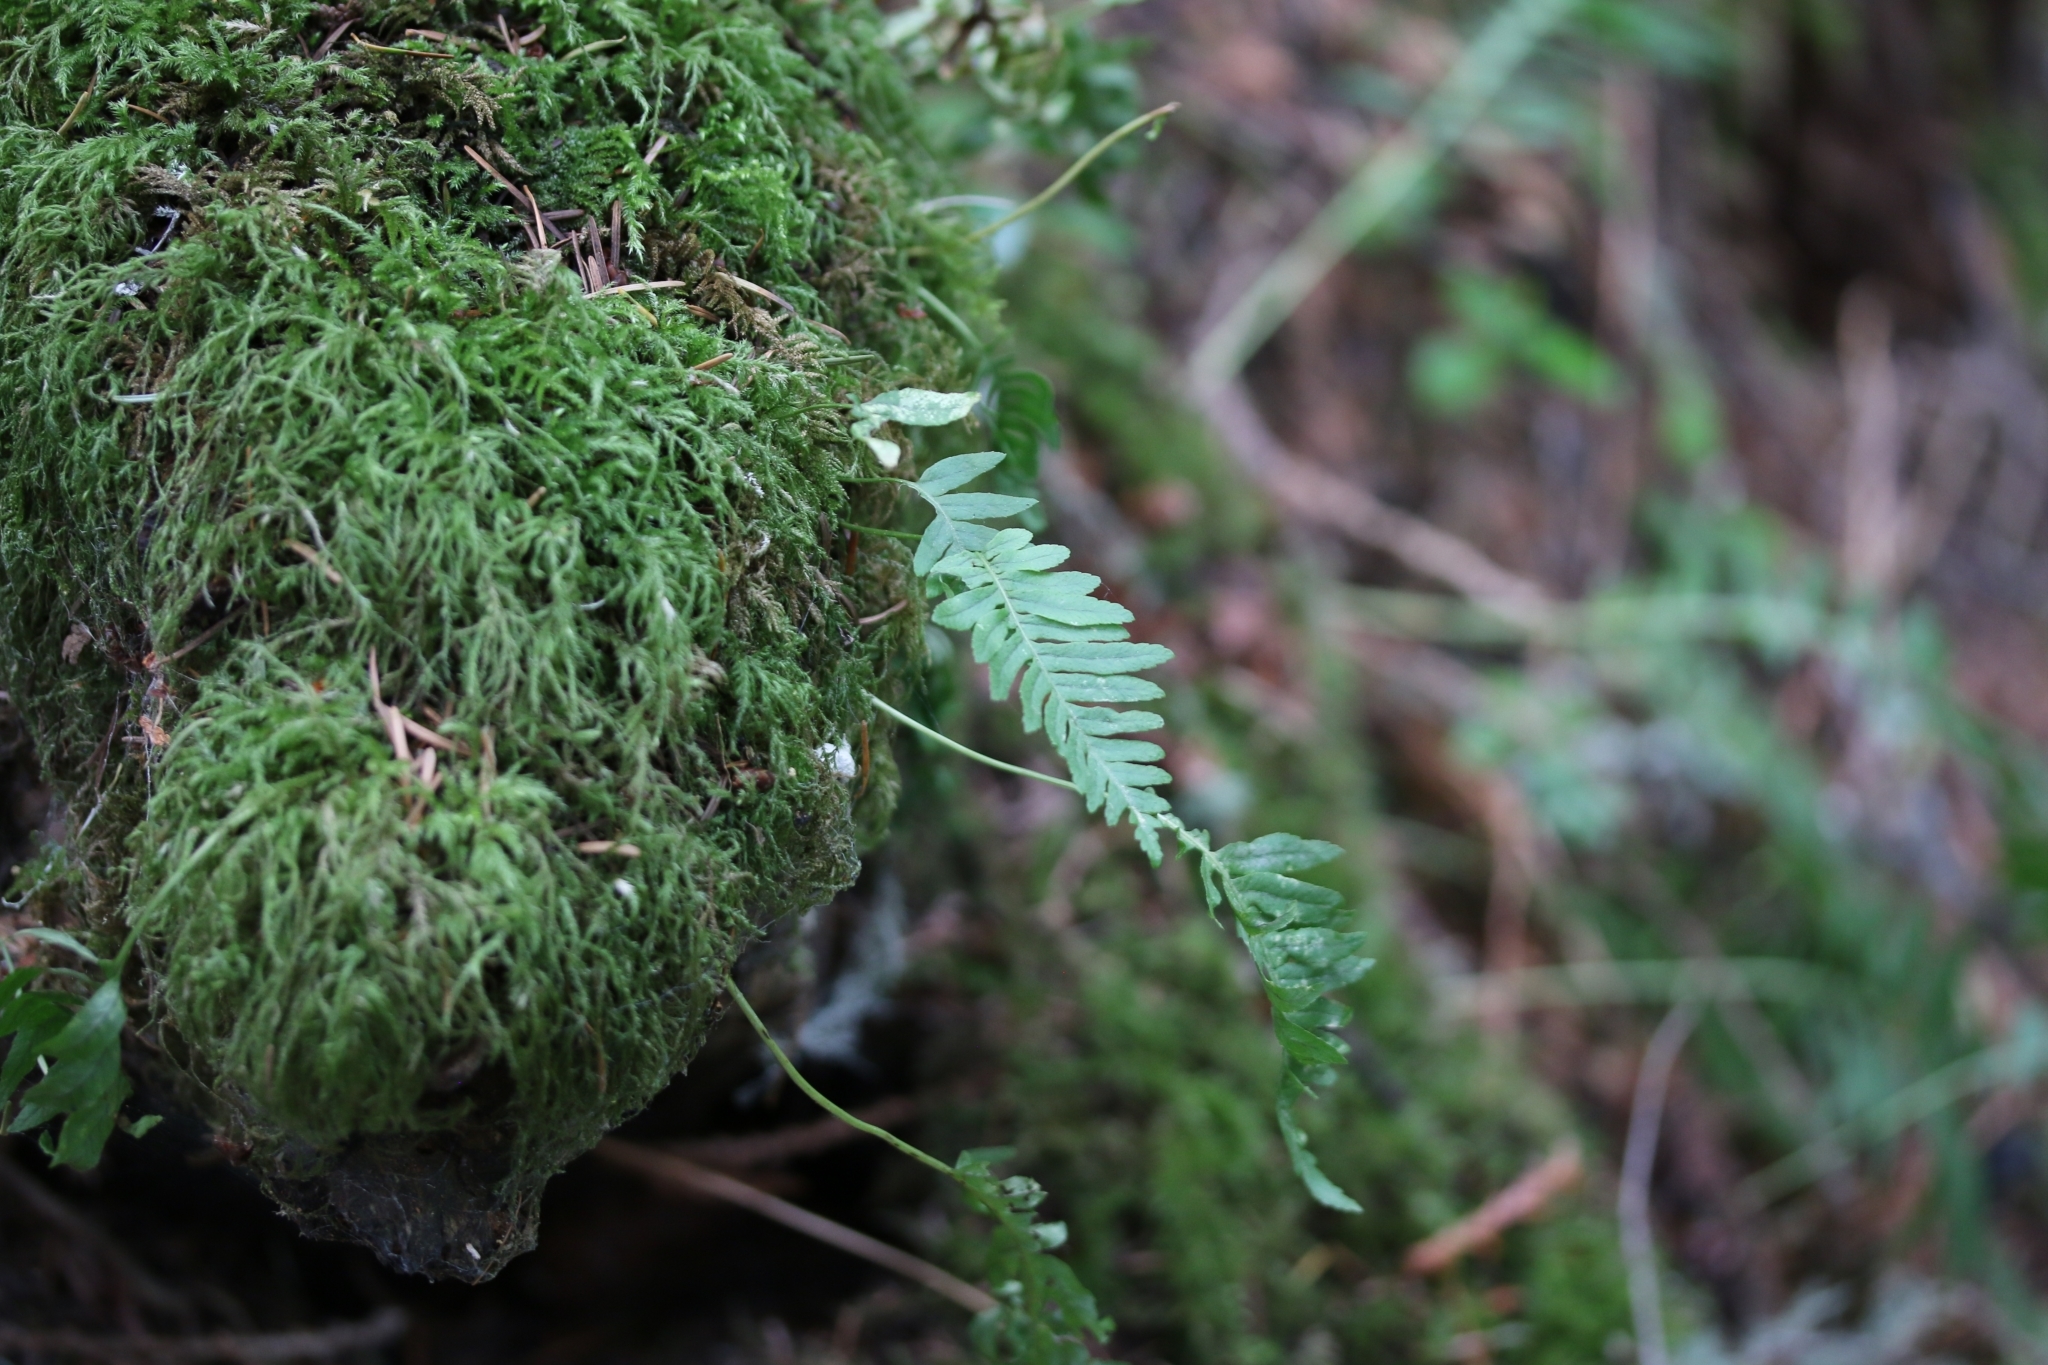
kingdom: Plantae
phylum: Tracheophyta
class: Polypodiopsida
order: Polypodiales
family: Polypodiaceae
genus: Polypodium
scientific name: Polypodium glycyrrhiza
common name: Licorice fern
